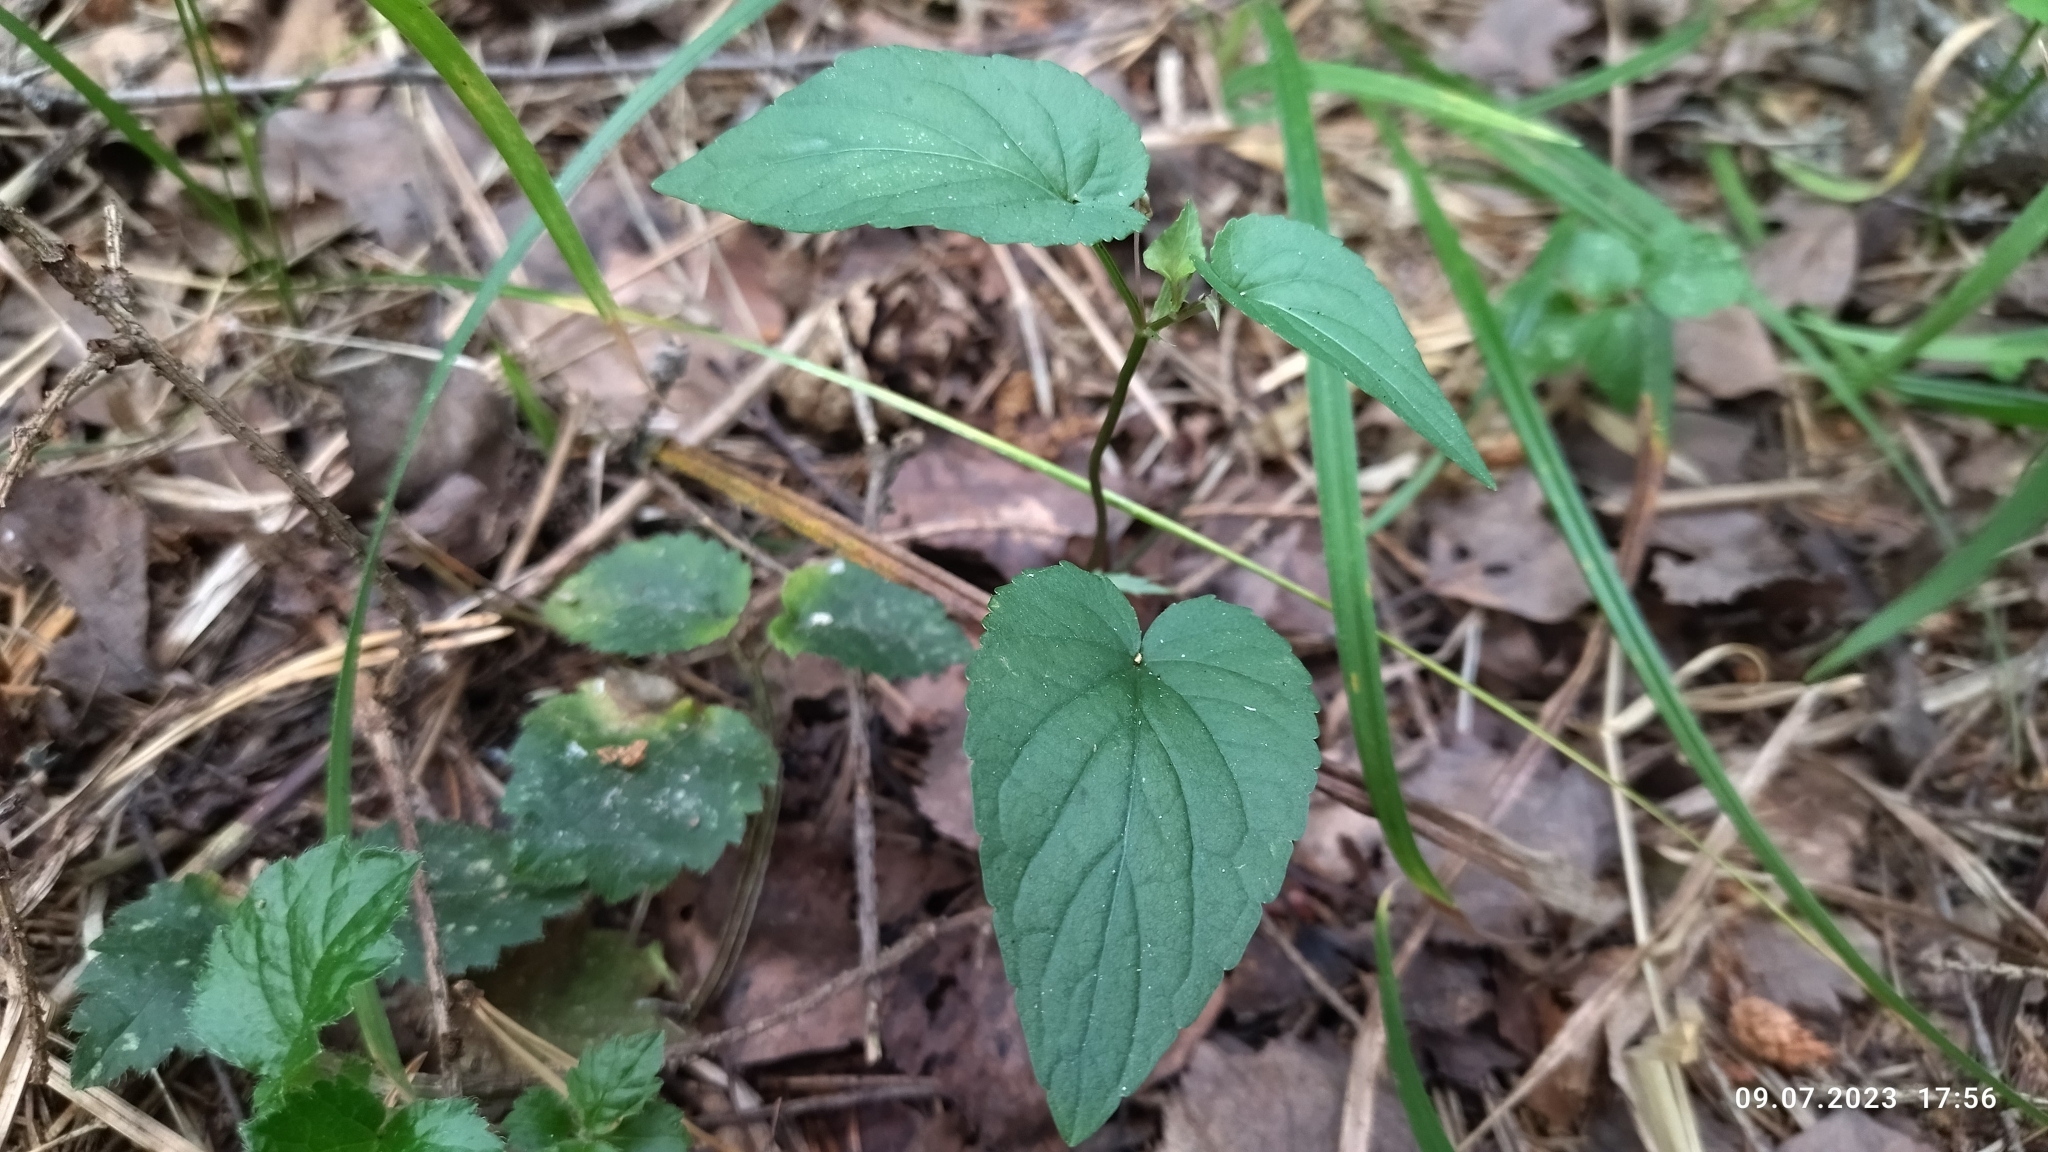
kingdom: Plantae
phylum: Tracheophyta
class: Magnoliopsida
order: Malpighiales
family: Violaceae
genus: Viola
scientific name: Viola
